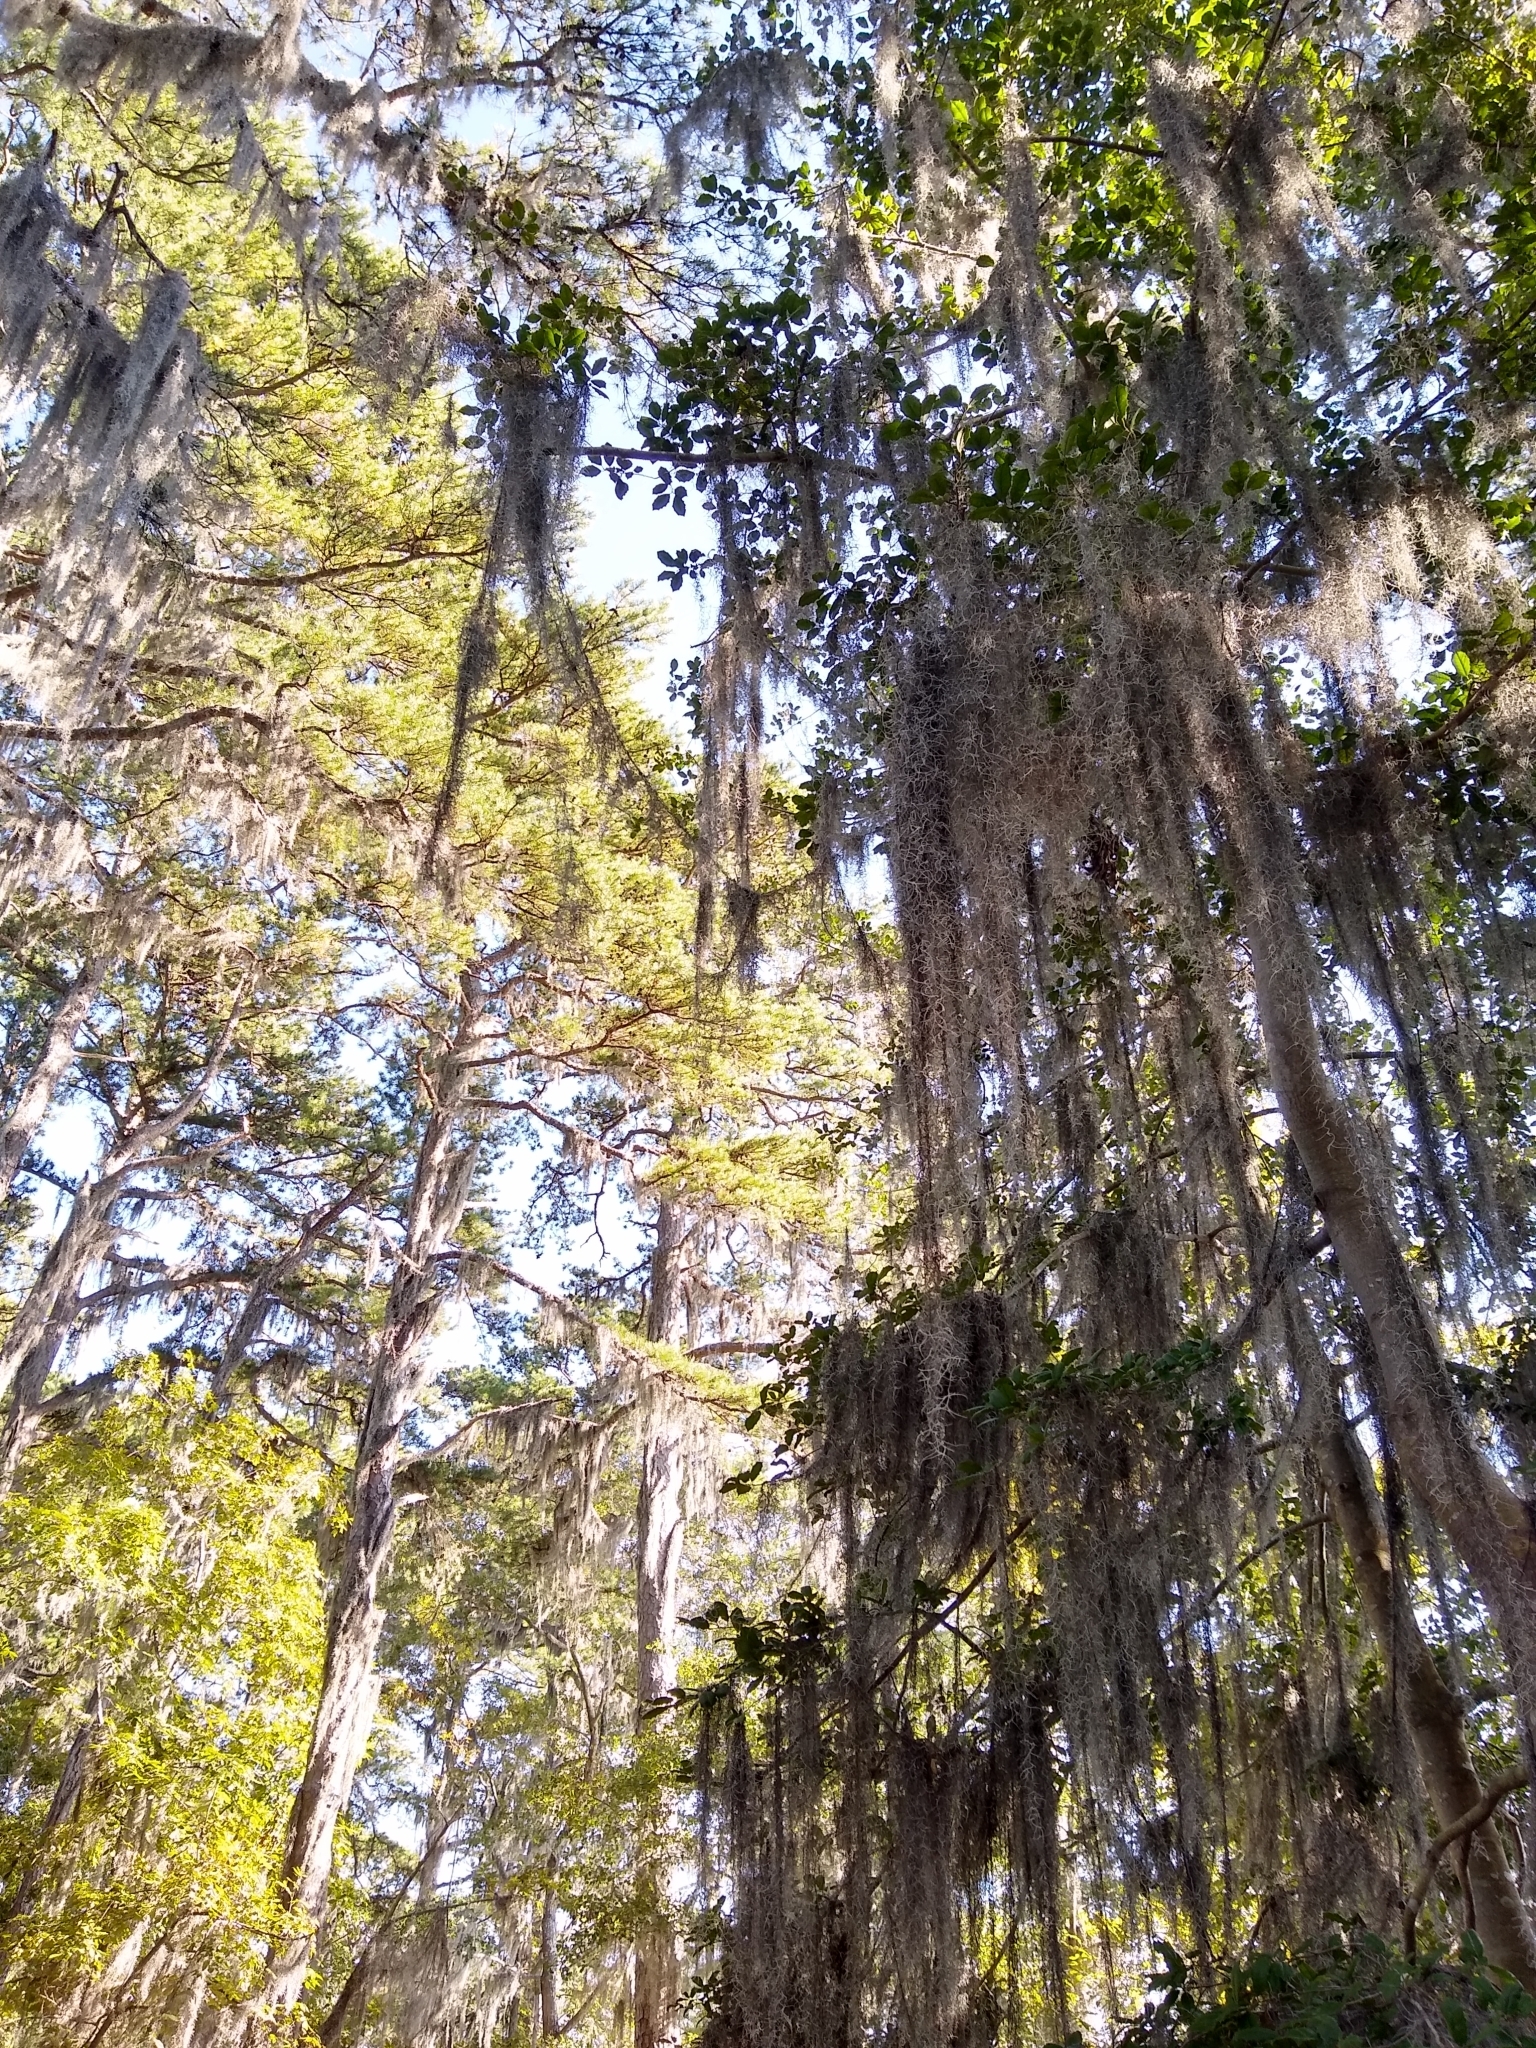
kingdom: Plantae
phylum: Tracheophyta
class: Liliopsida
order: Poales
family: Bromeliaceae
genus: Tillandsia
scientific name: Tillandsia usneoides
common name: Spanish moss
